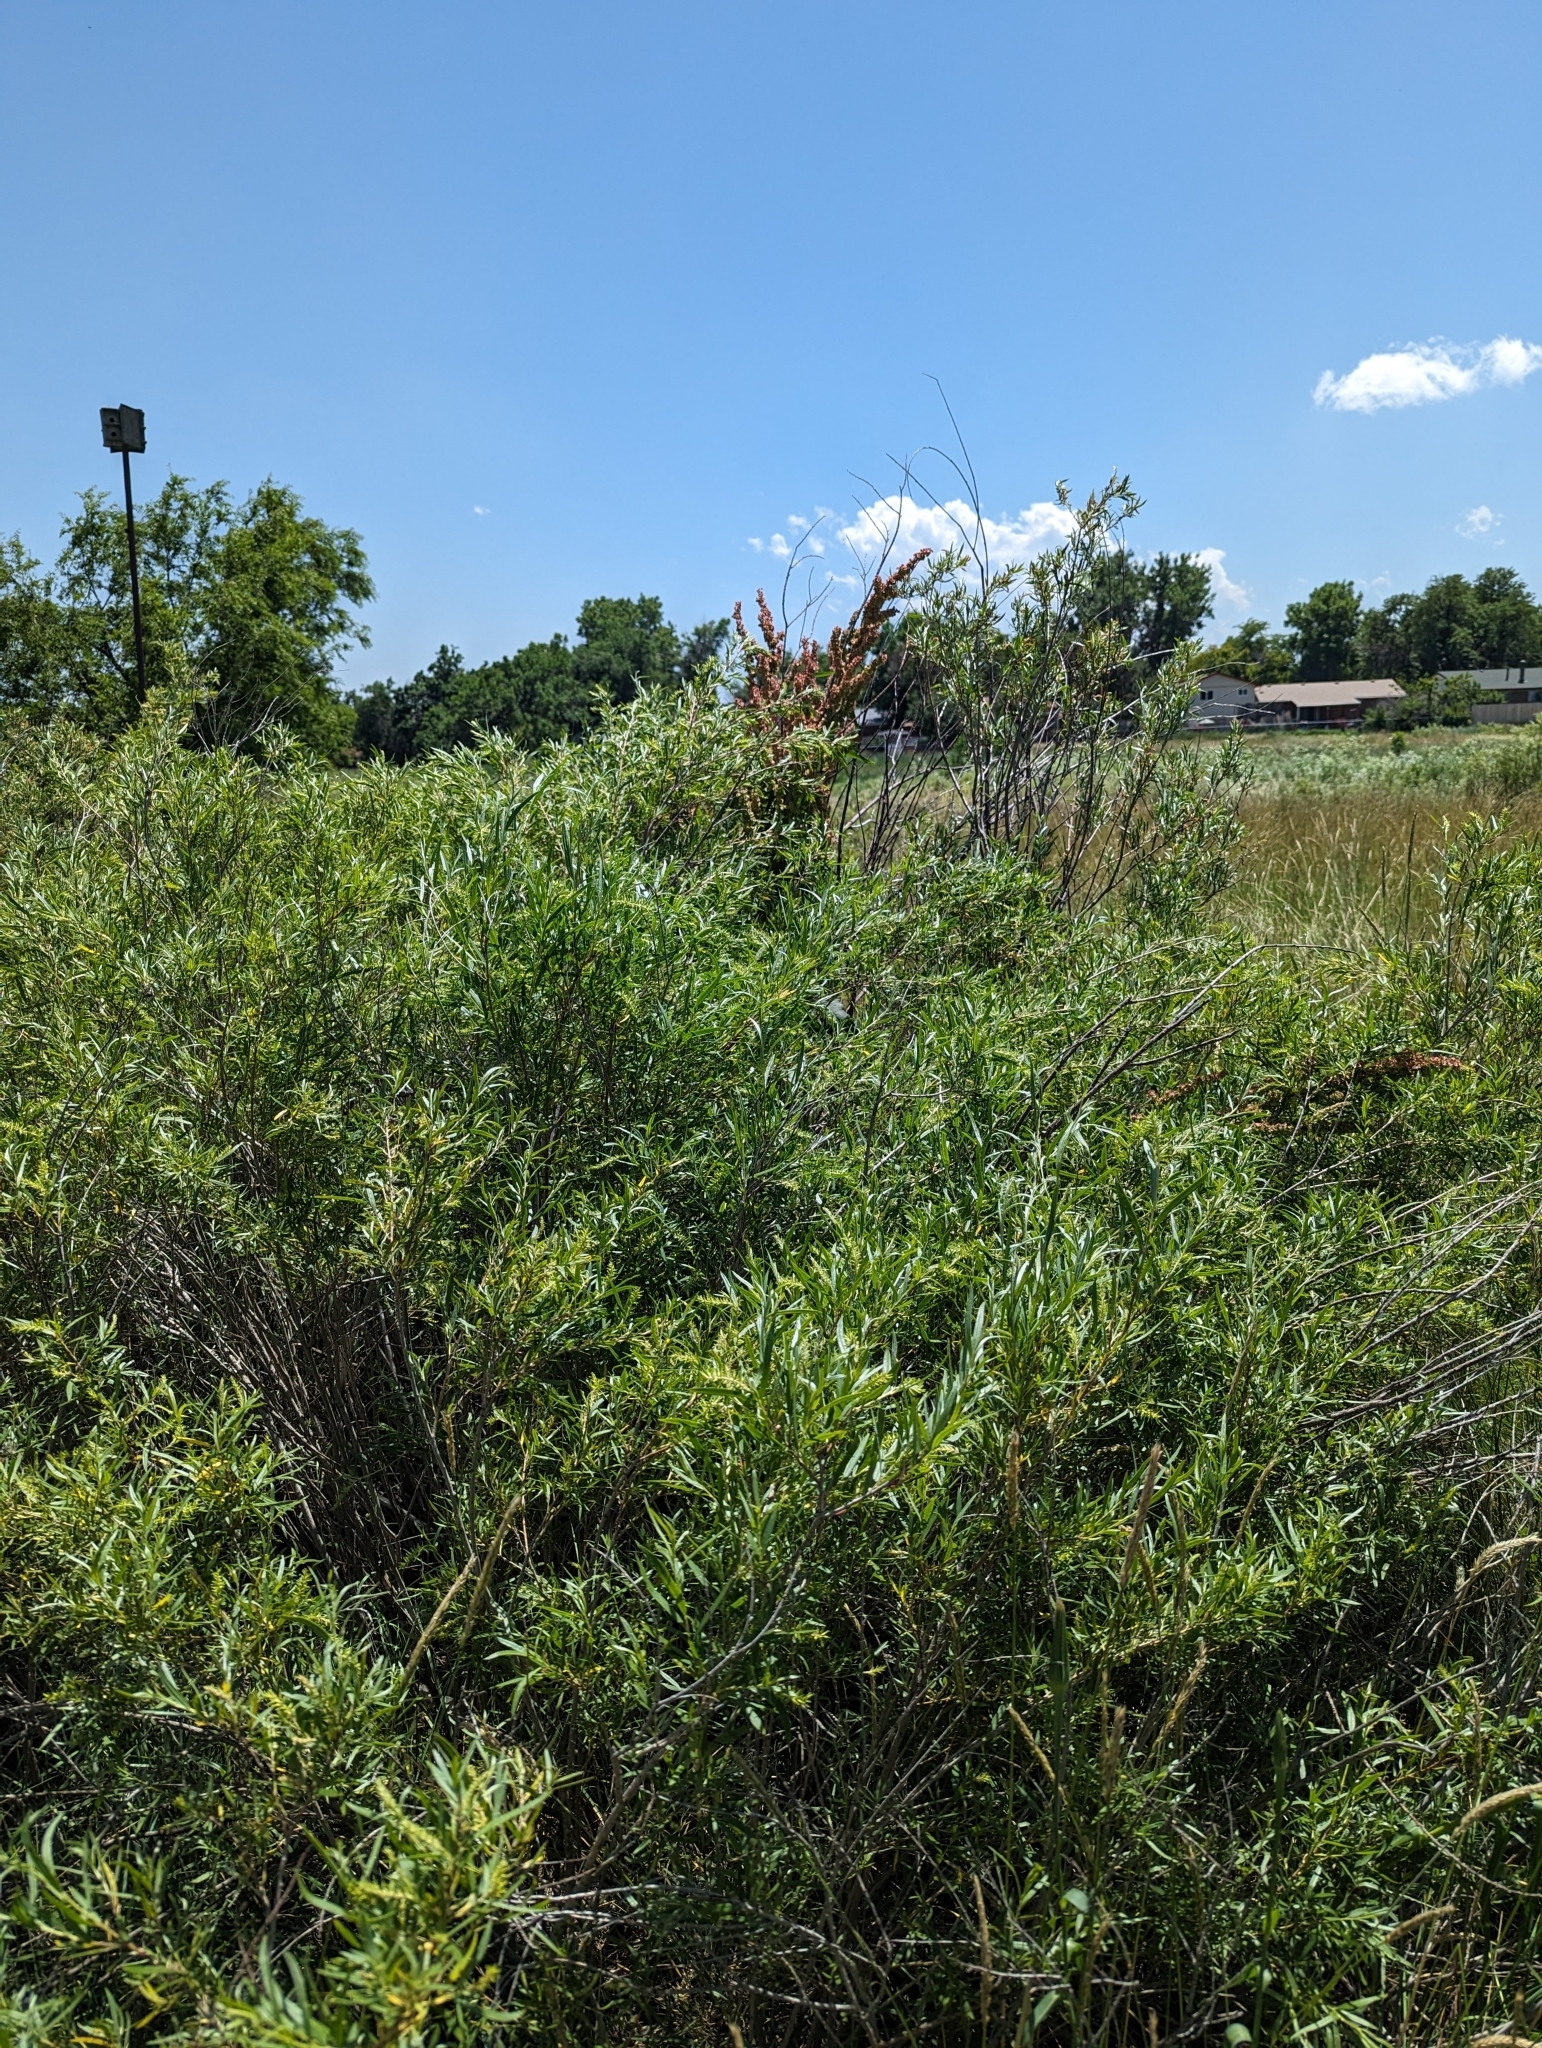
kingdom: Plantae
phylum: Tracheophyta
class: Magnoliopsida
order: Caryophyllales
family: Polygonaceae
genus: Rumex
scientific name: Rumex crispus
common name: Curled dock
